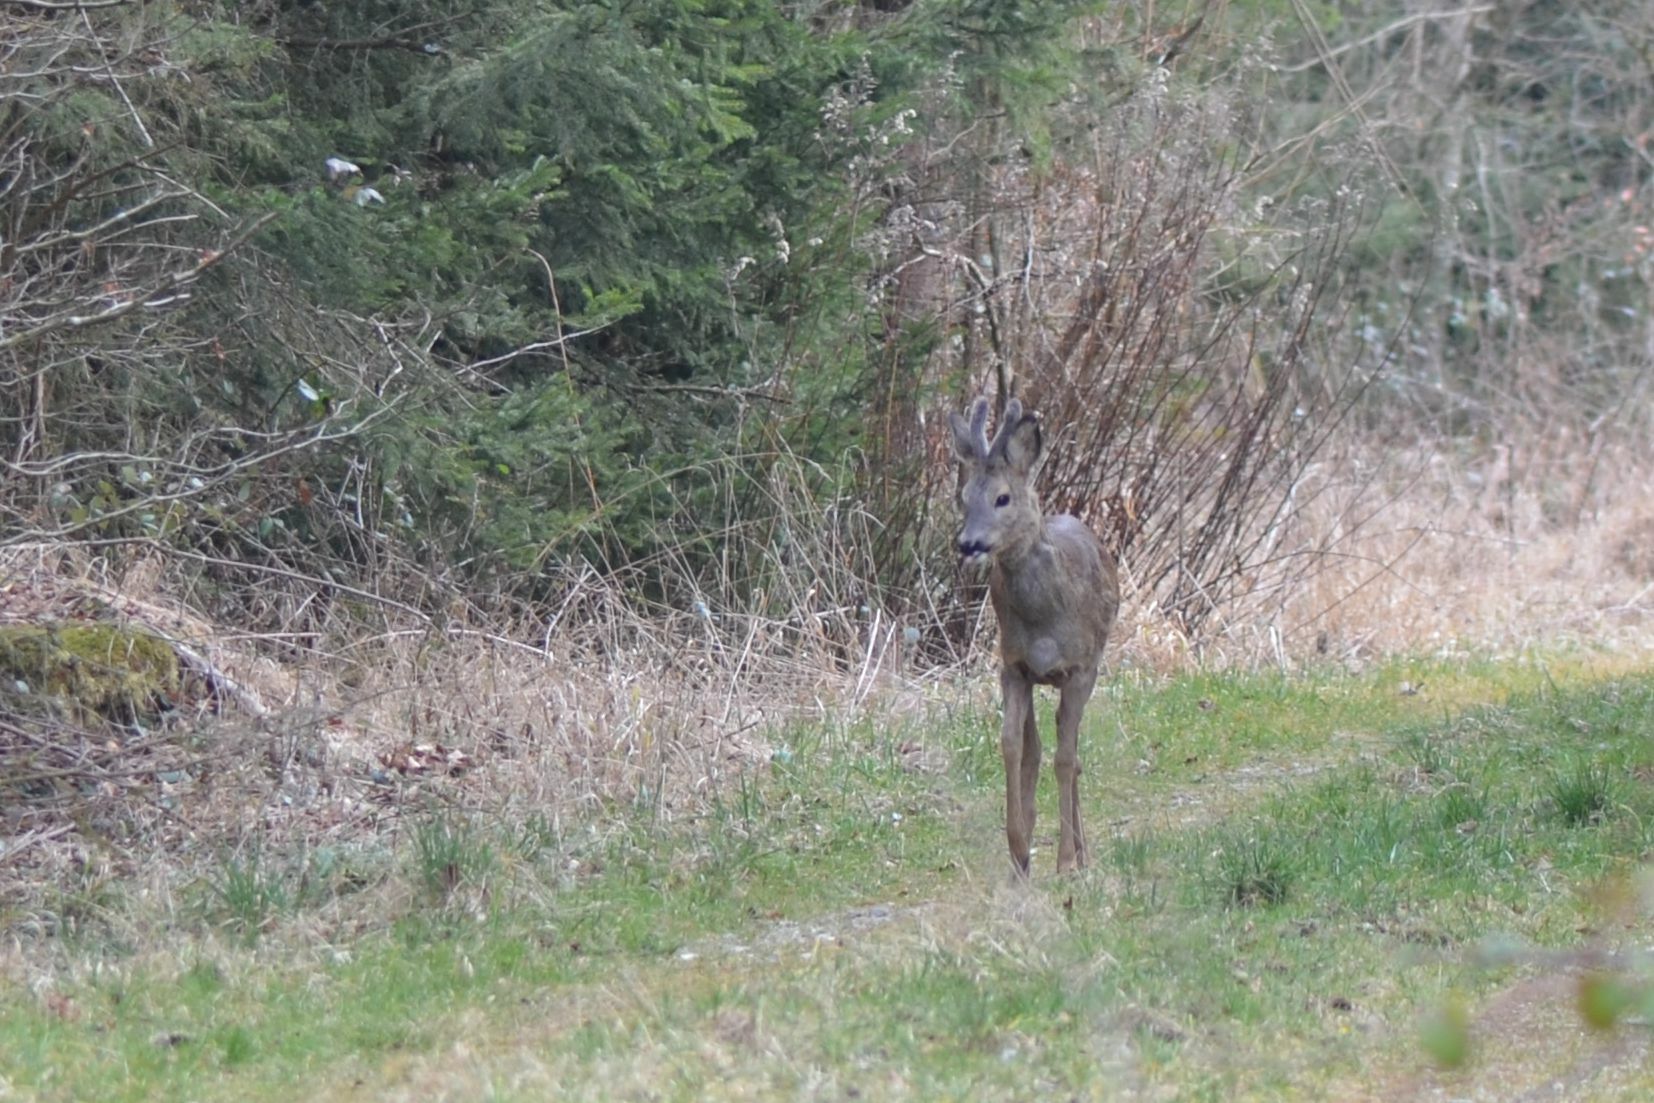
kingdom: Animalia
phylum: Chordata
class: Mammalia
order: Artiodactyla
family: Cervidae
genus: Capreolus
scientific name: Capreolus capreolus
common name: Western roe deer
